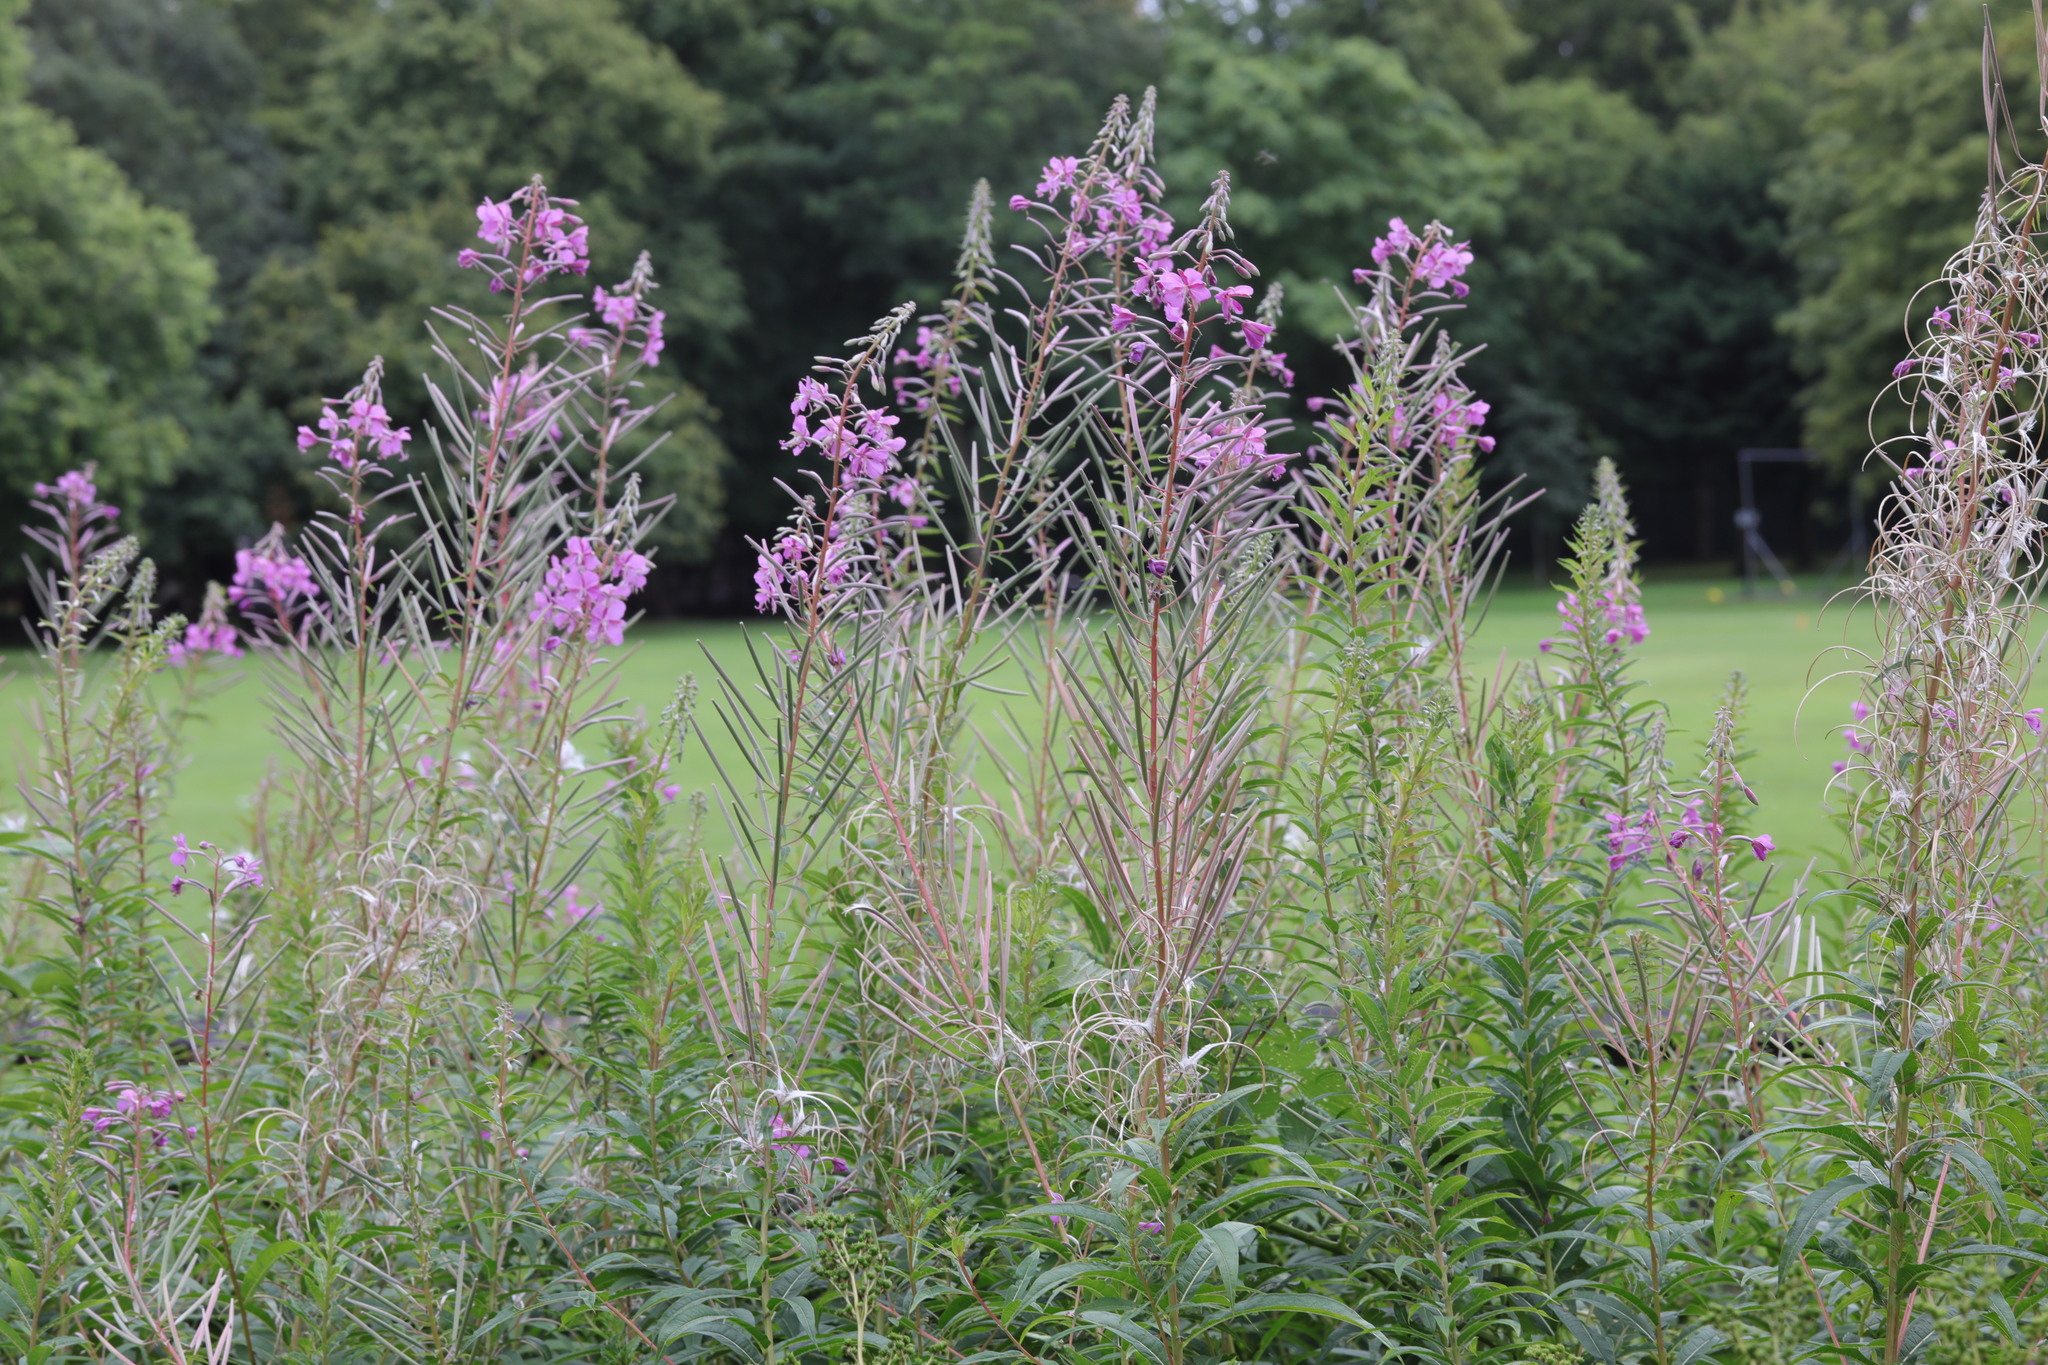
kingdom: Plantae
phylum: Tracheophyta
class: Magnoliopsida
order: Myrtales
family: Onagraceae
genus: Chamaenerion
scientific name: Chamaenerion angustifolium
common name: Fireweed
